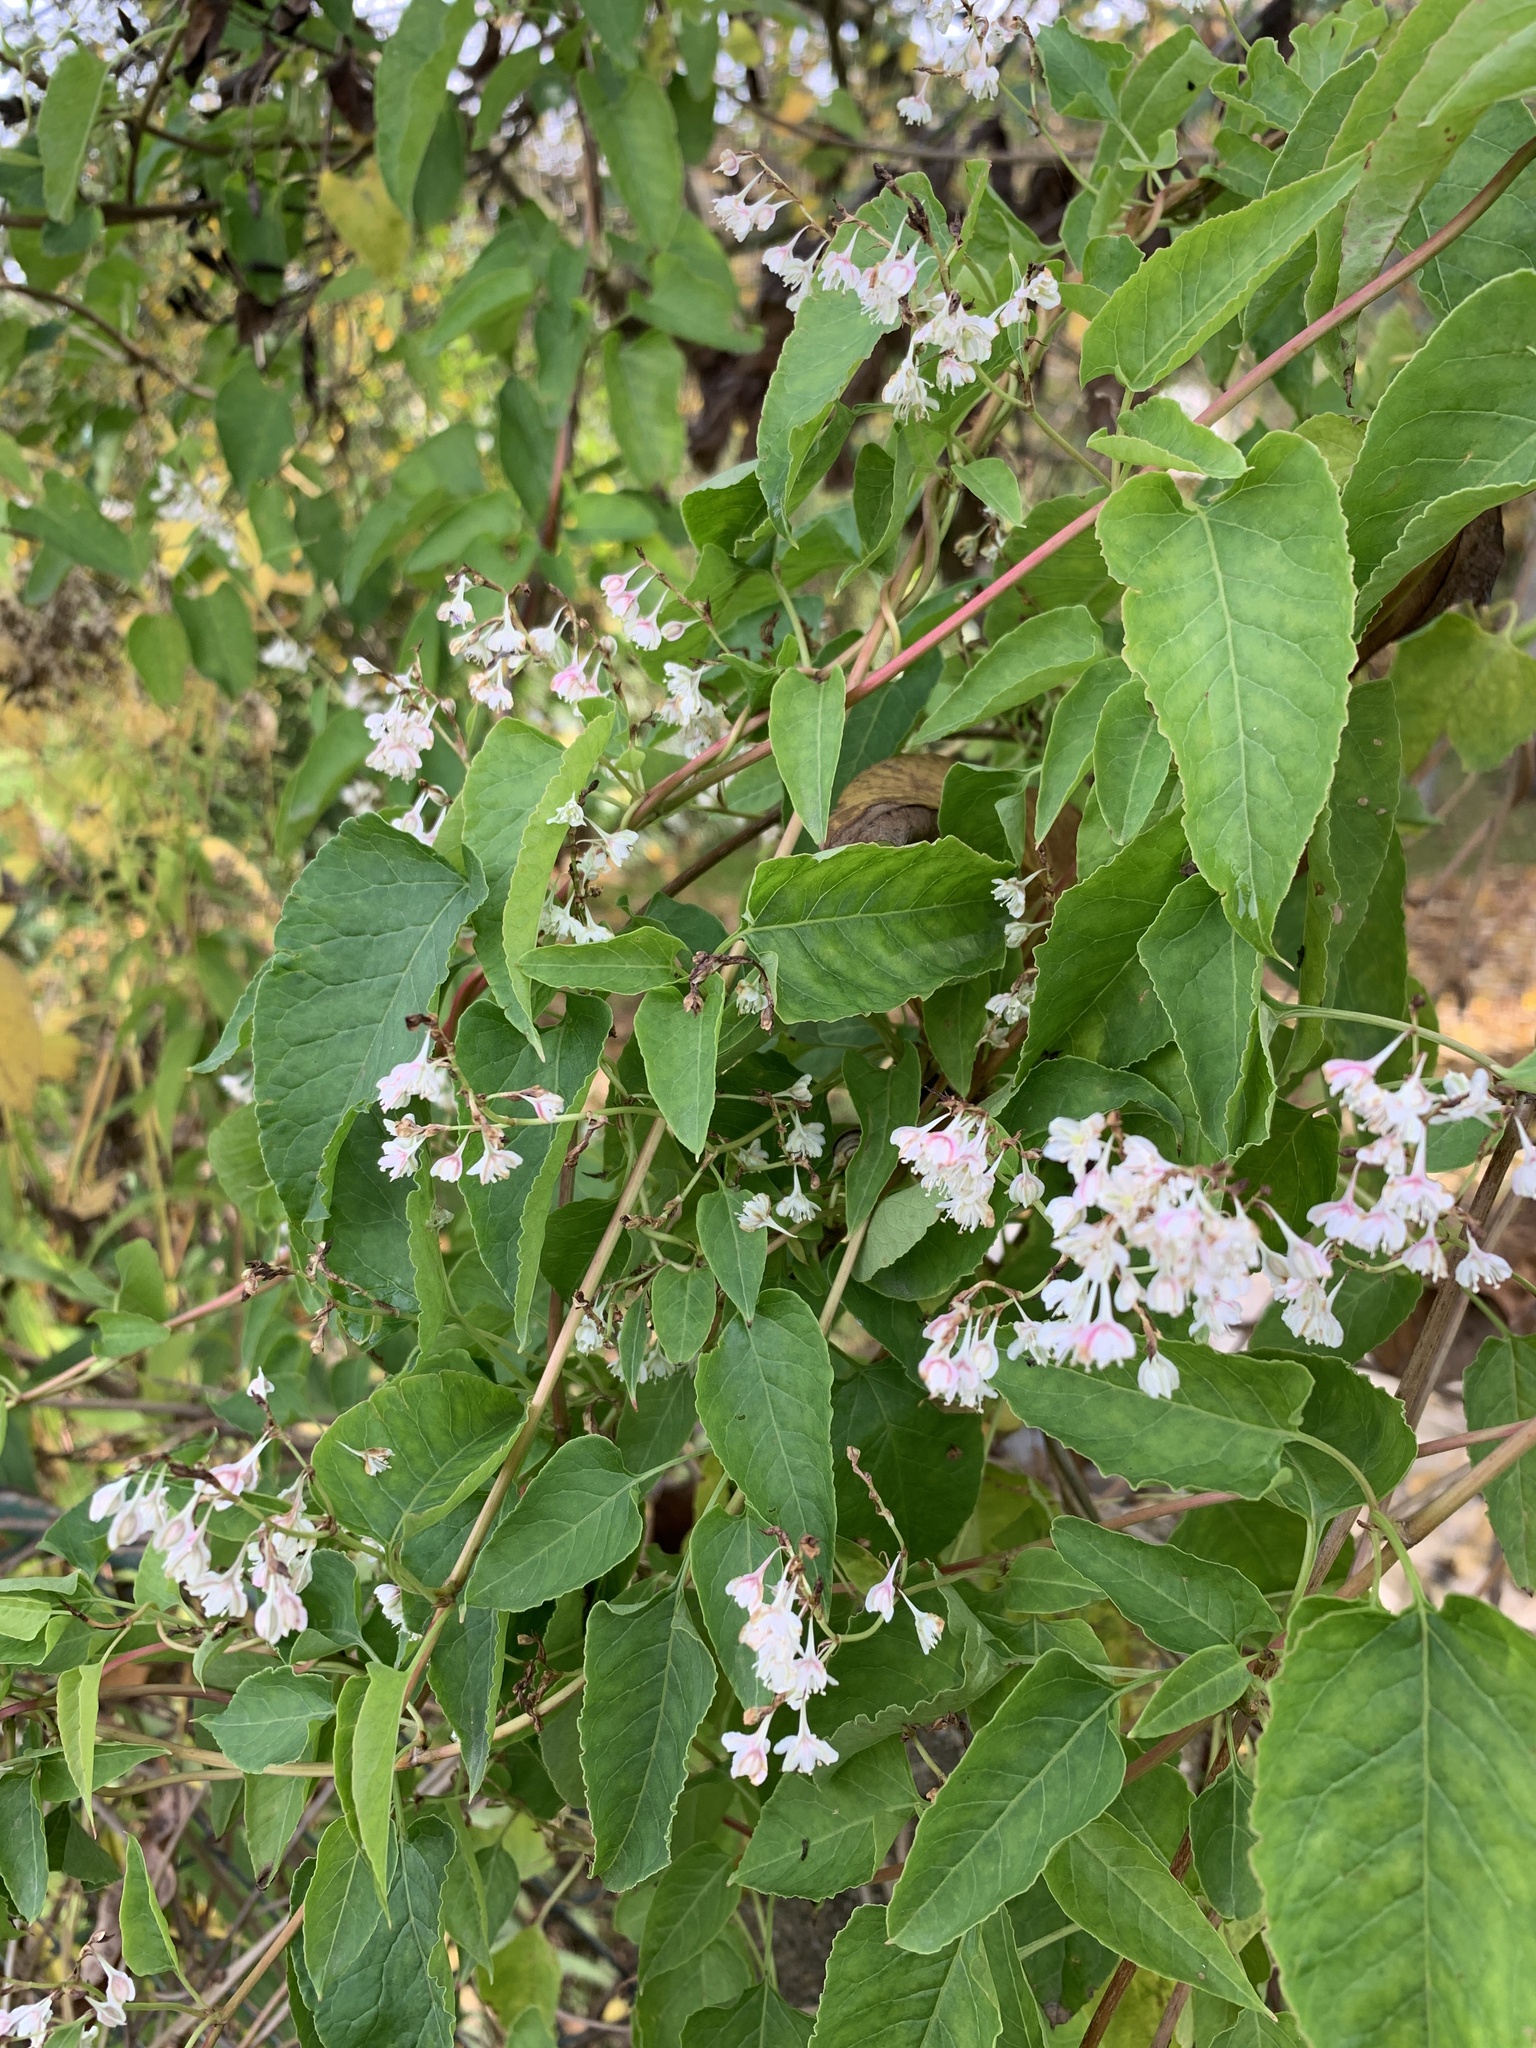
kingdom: Plantae
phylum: Tracheophyta
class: Magnoliopsida
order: Caryophyllales
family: Polygonaceae
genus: Fallopia
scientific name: Fallopia baldschuanica
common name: Russian-vine
